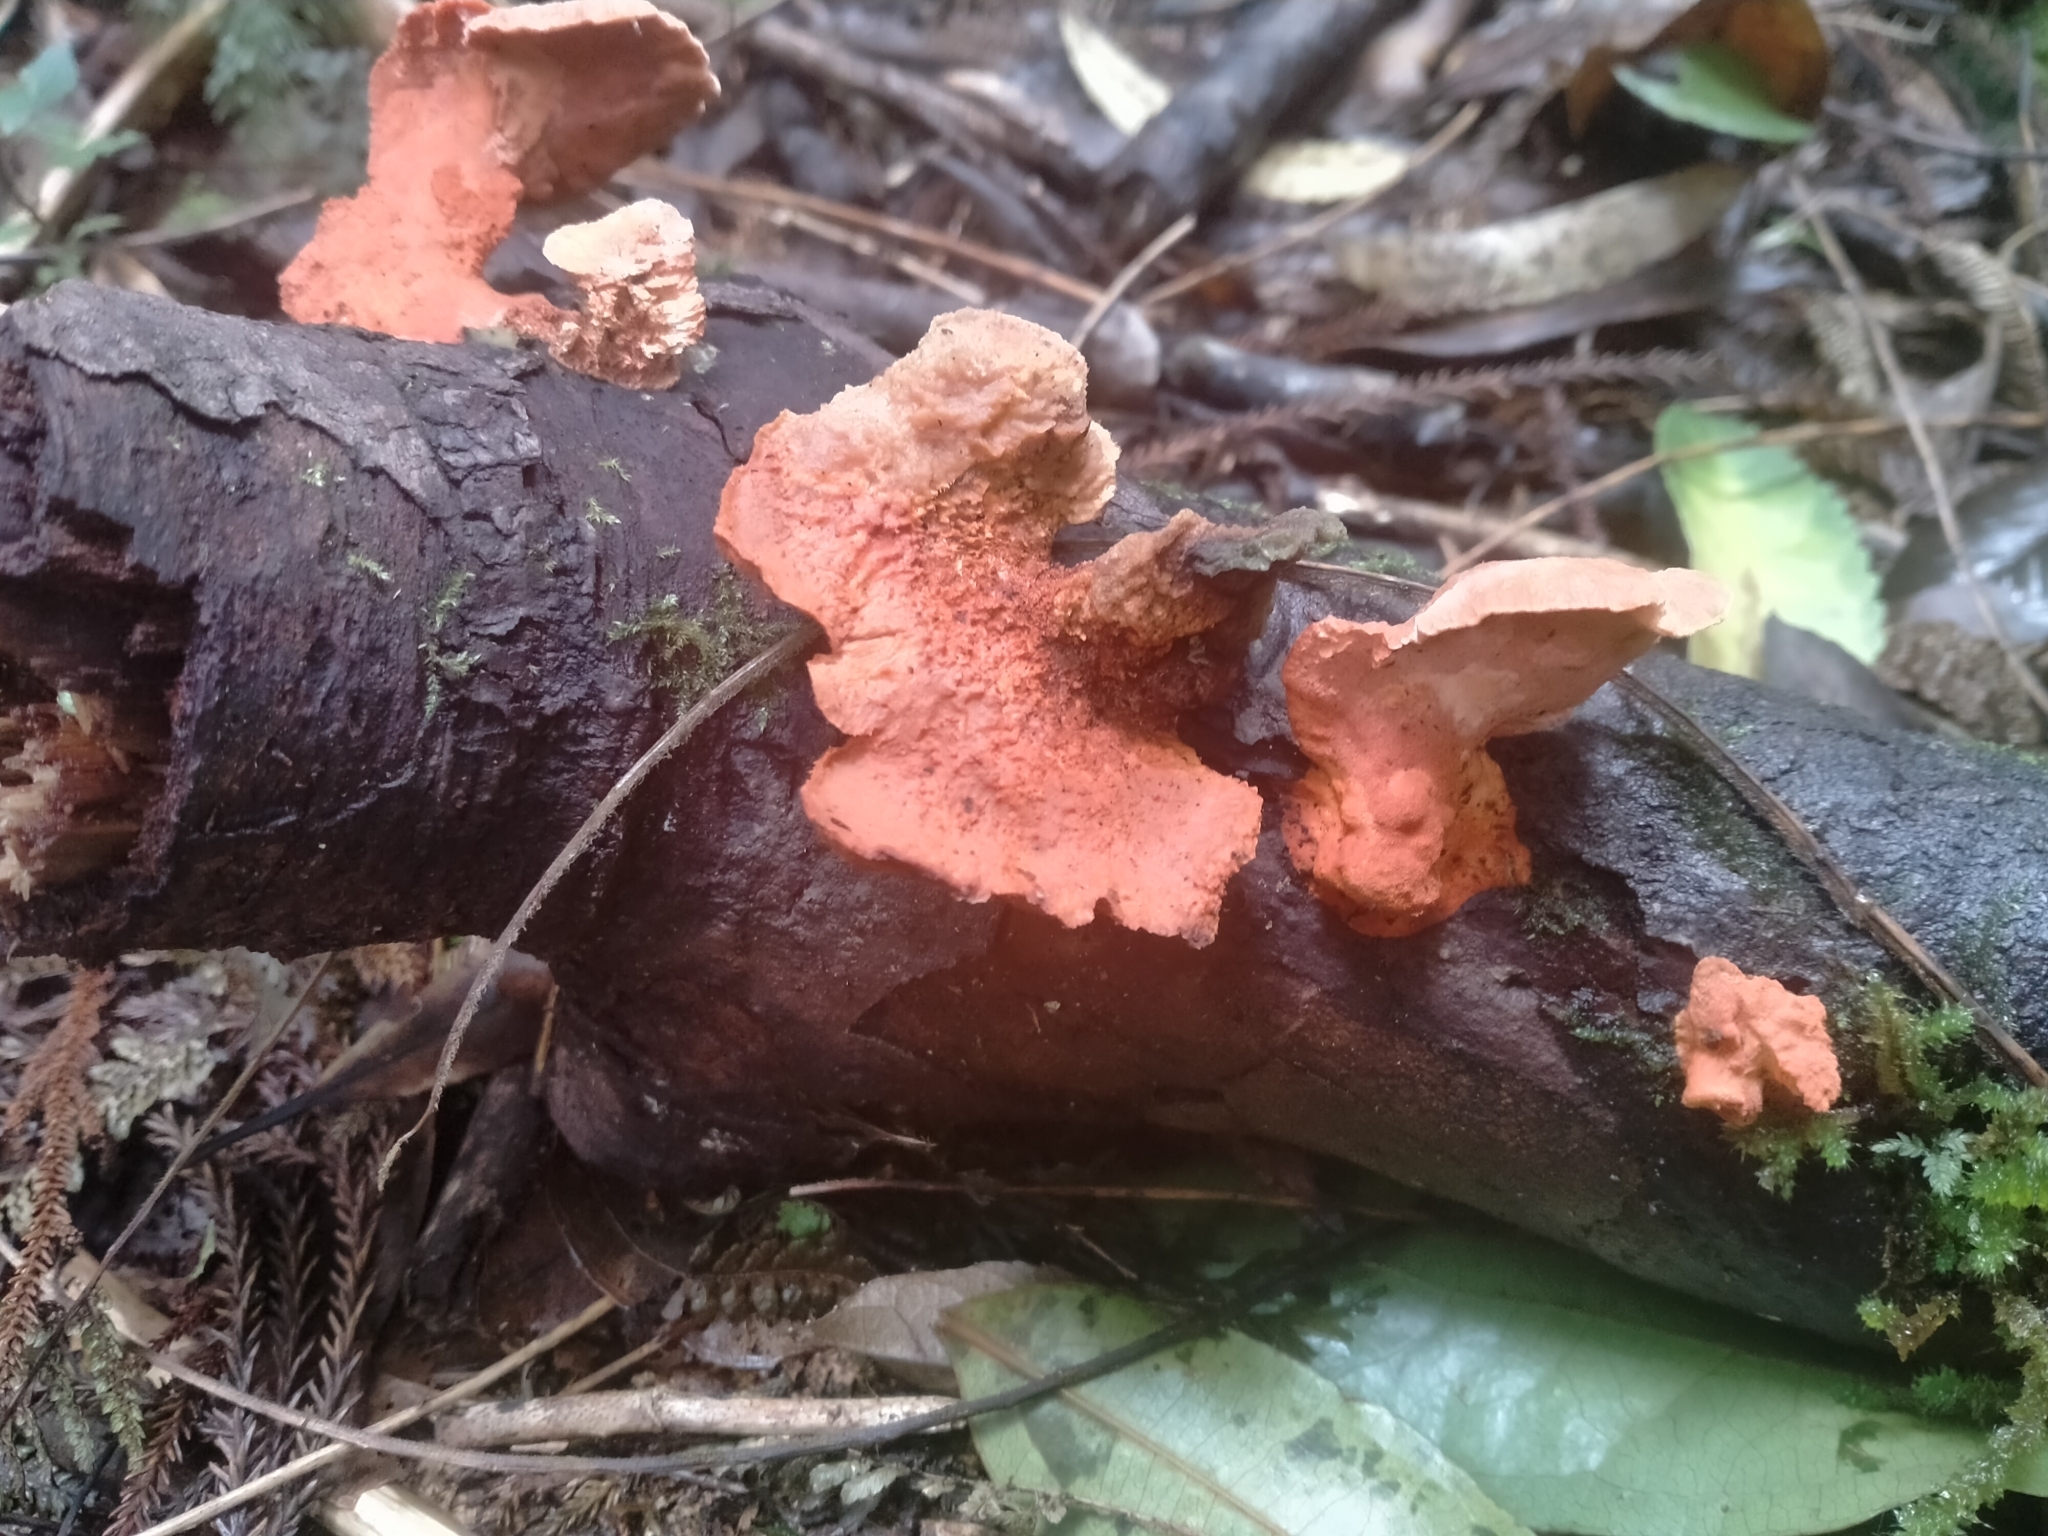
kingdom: Fungi
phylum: Basidiomycota
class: Agaricomycetes
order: Polyporales
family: Polyporaceae
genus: Trametes
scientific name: Trametes coccinea
